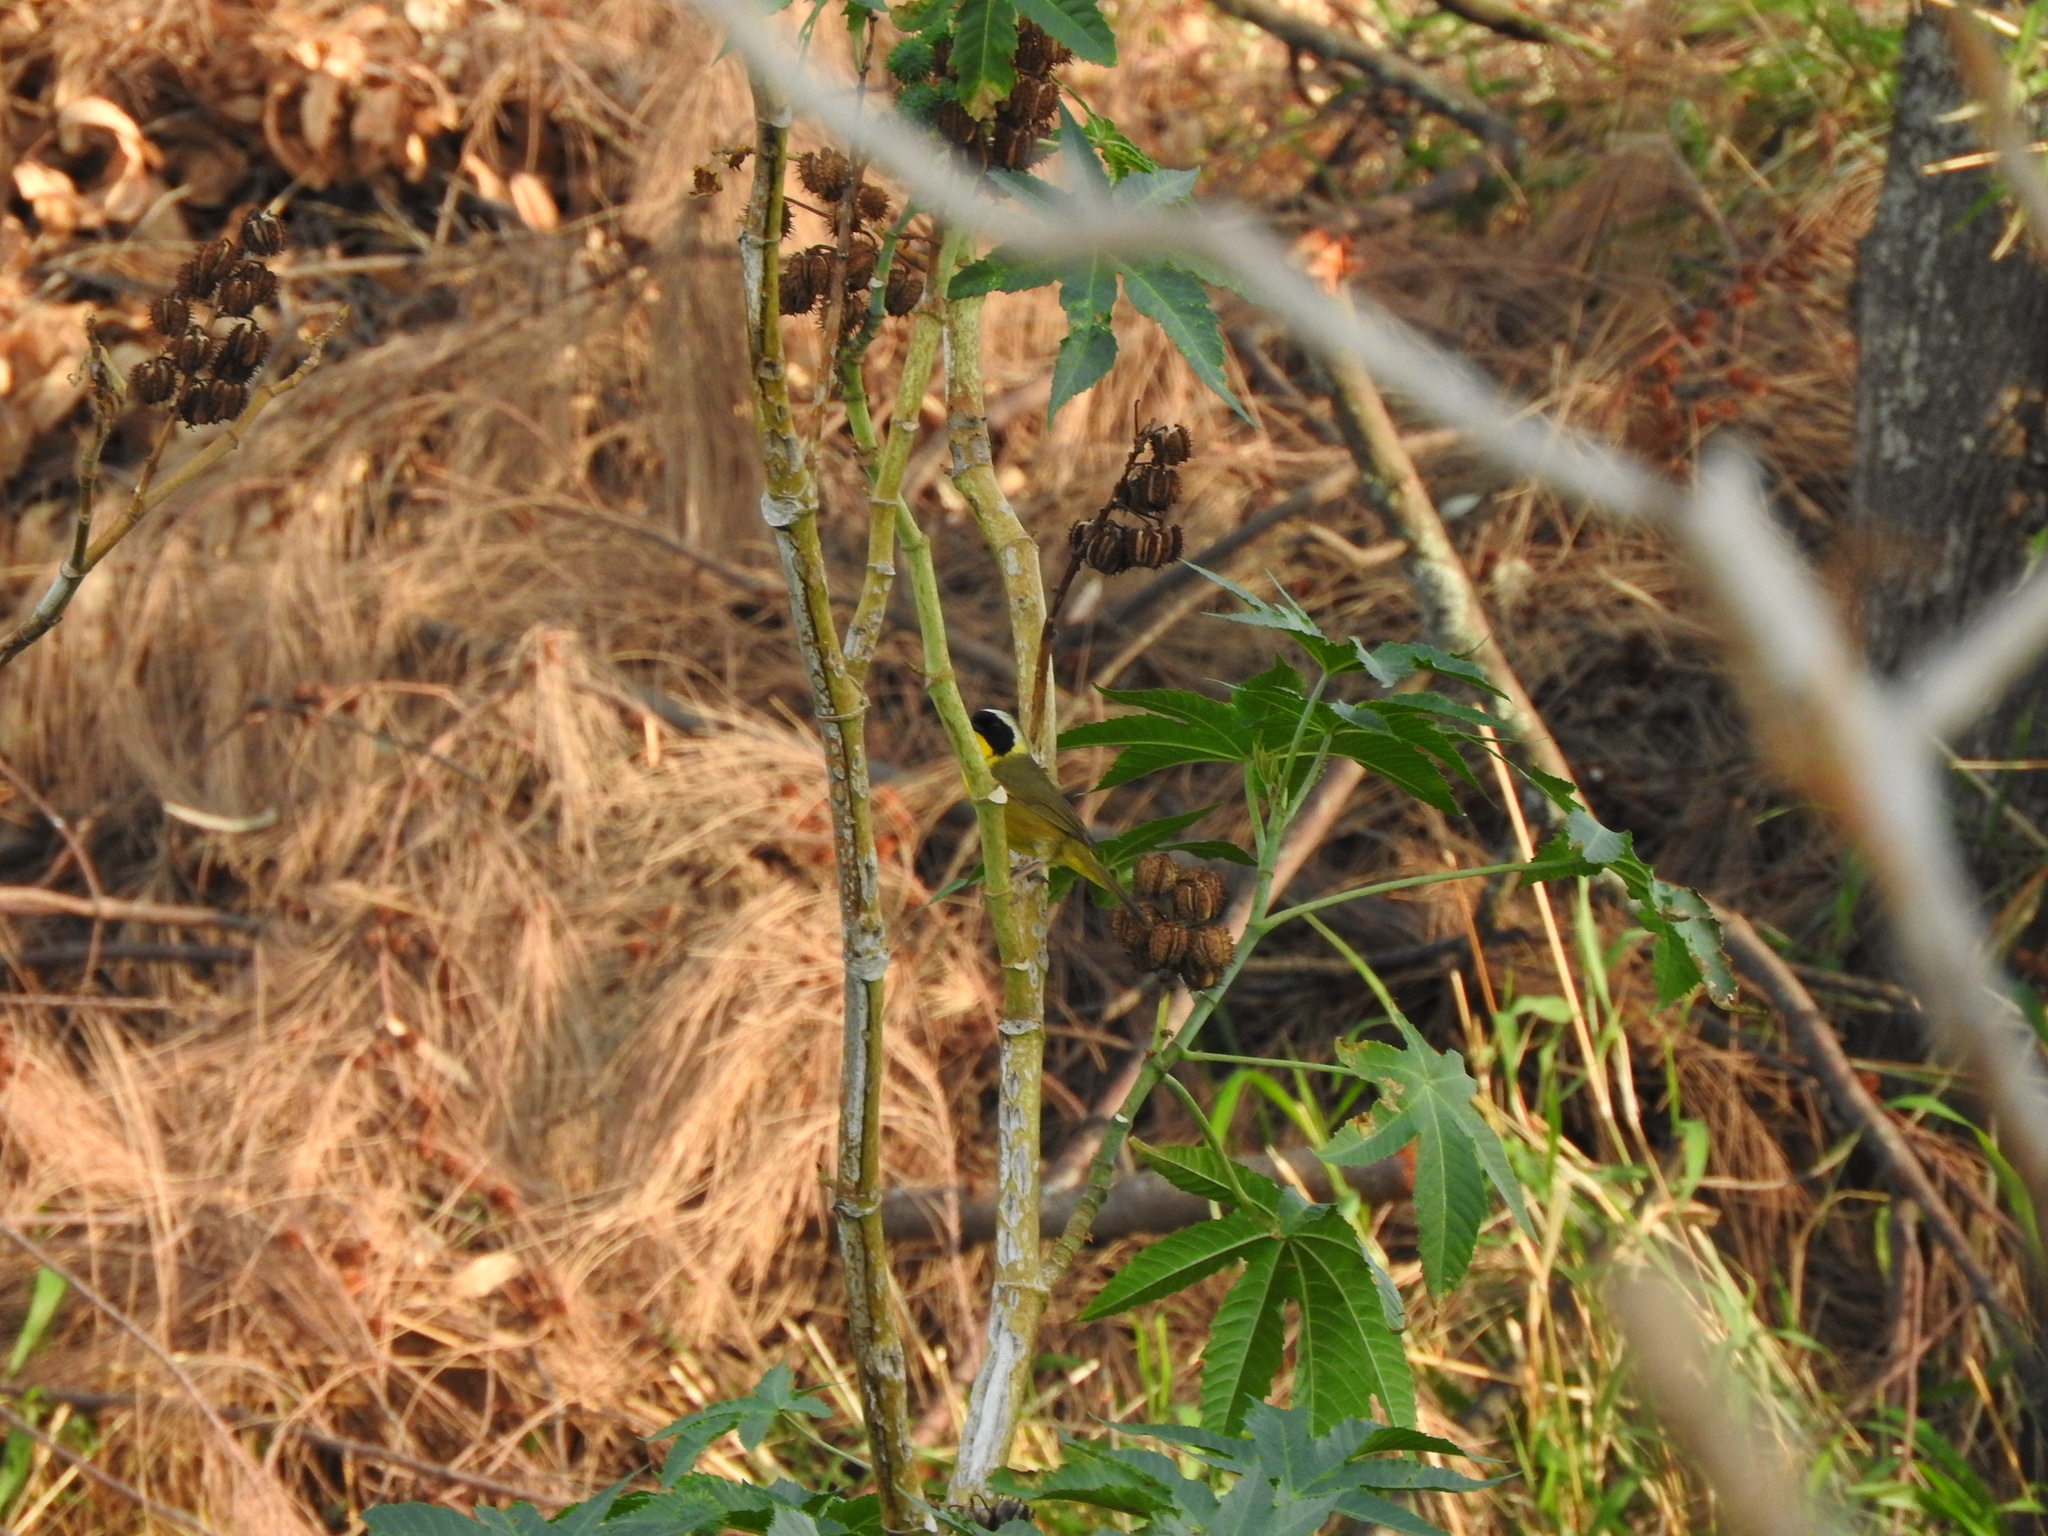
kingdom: Animalia
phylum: Chordata
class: Aves
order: Passeriformes
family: Parulidae
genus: Geothlypis
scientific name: Geothlypis trichas
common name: Common yellowthroat
